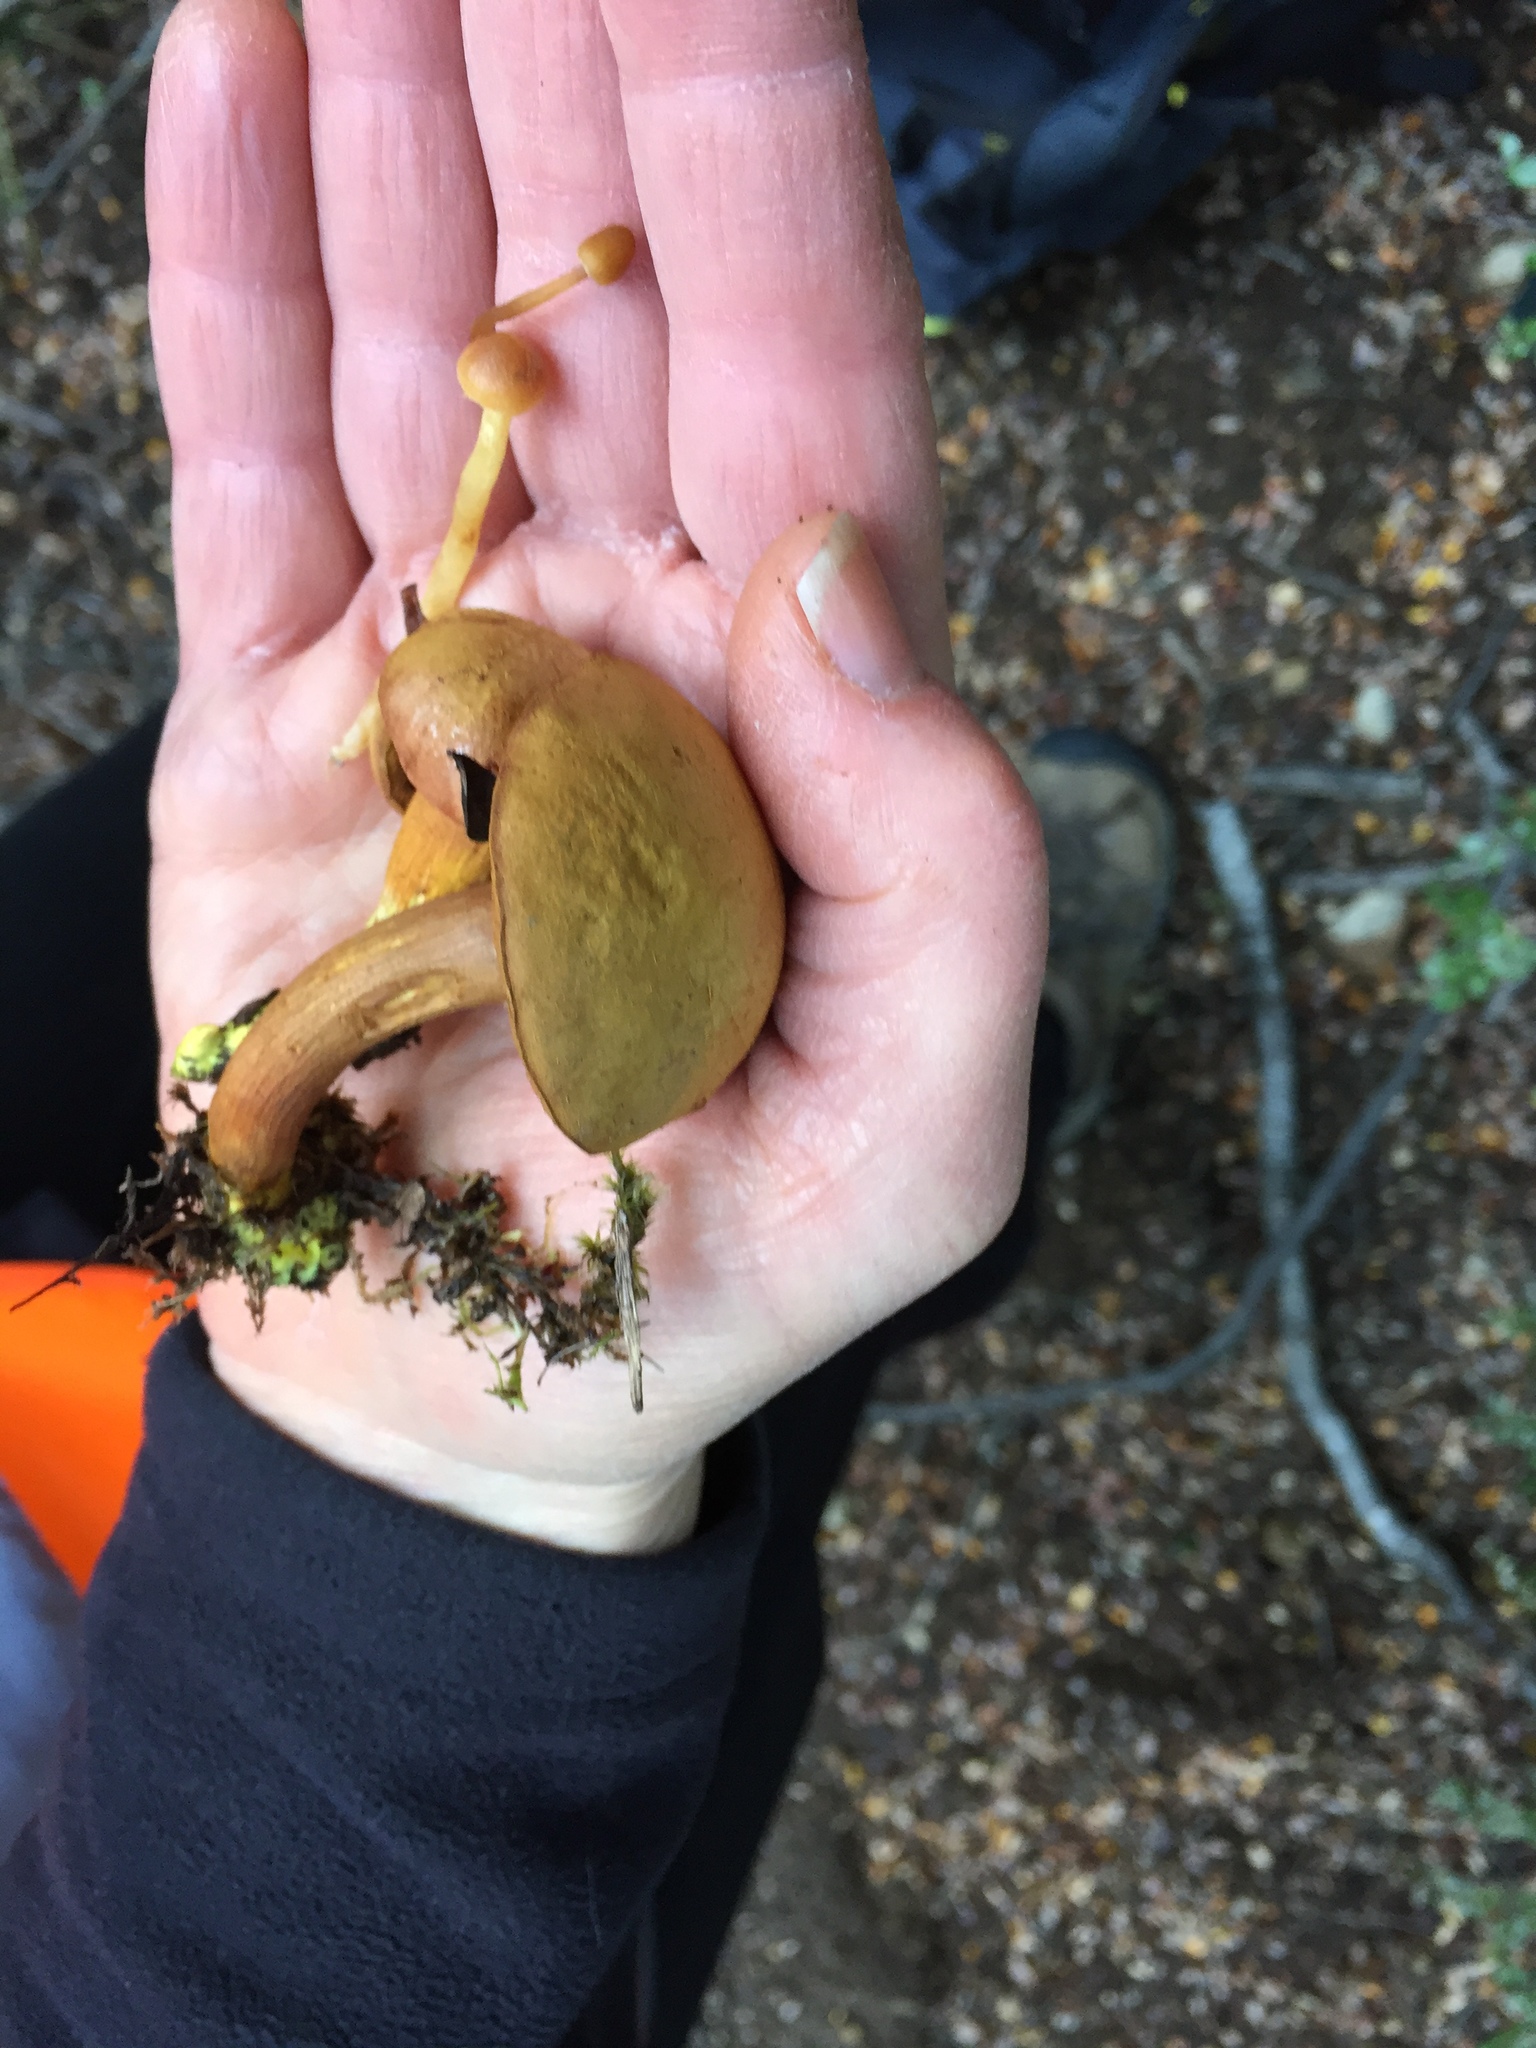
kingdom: Fungi
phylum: Basidiomycota
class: Agaricomycetes
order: Boletales
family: Boletaceae
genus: Chalciporus
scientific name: Chalciporus piperatus
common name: Peppery bolete
